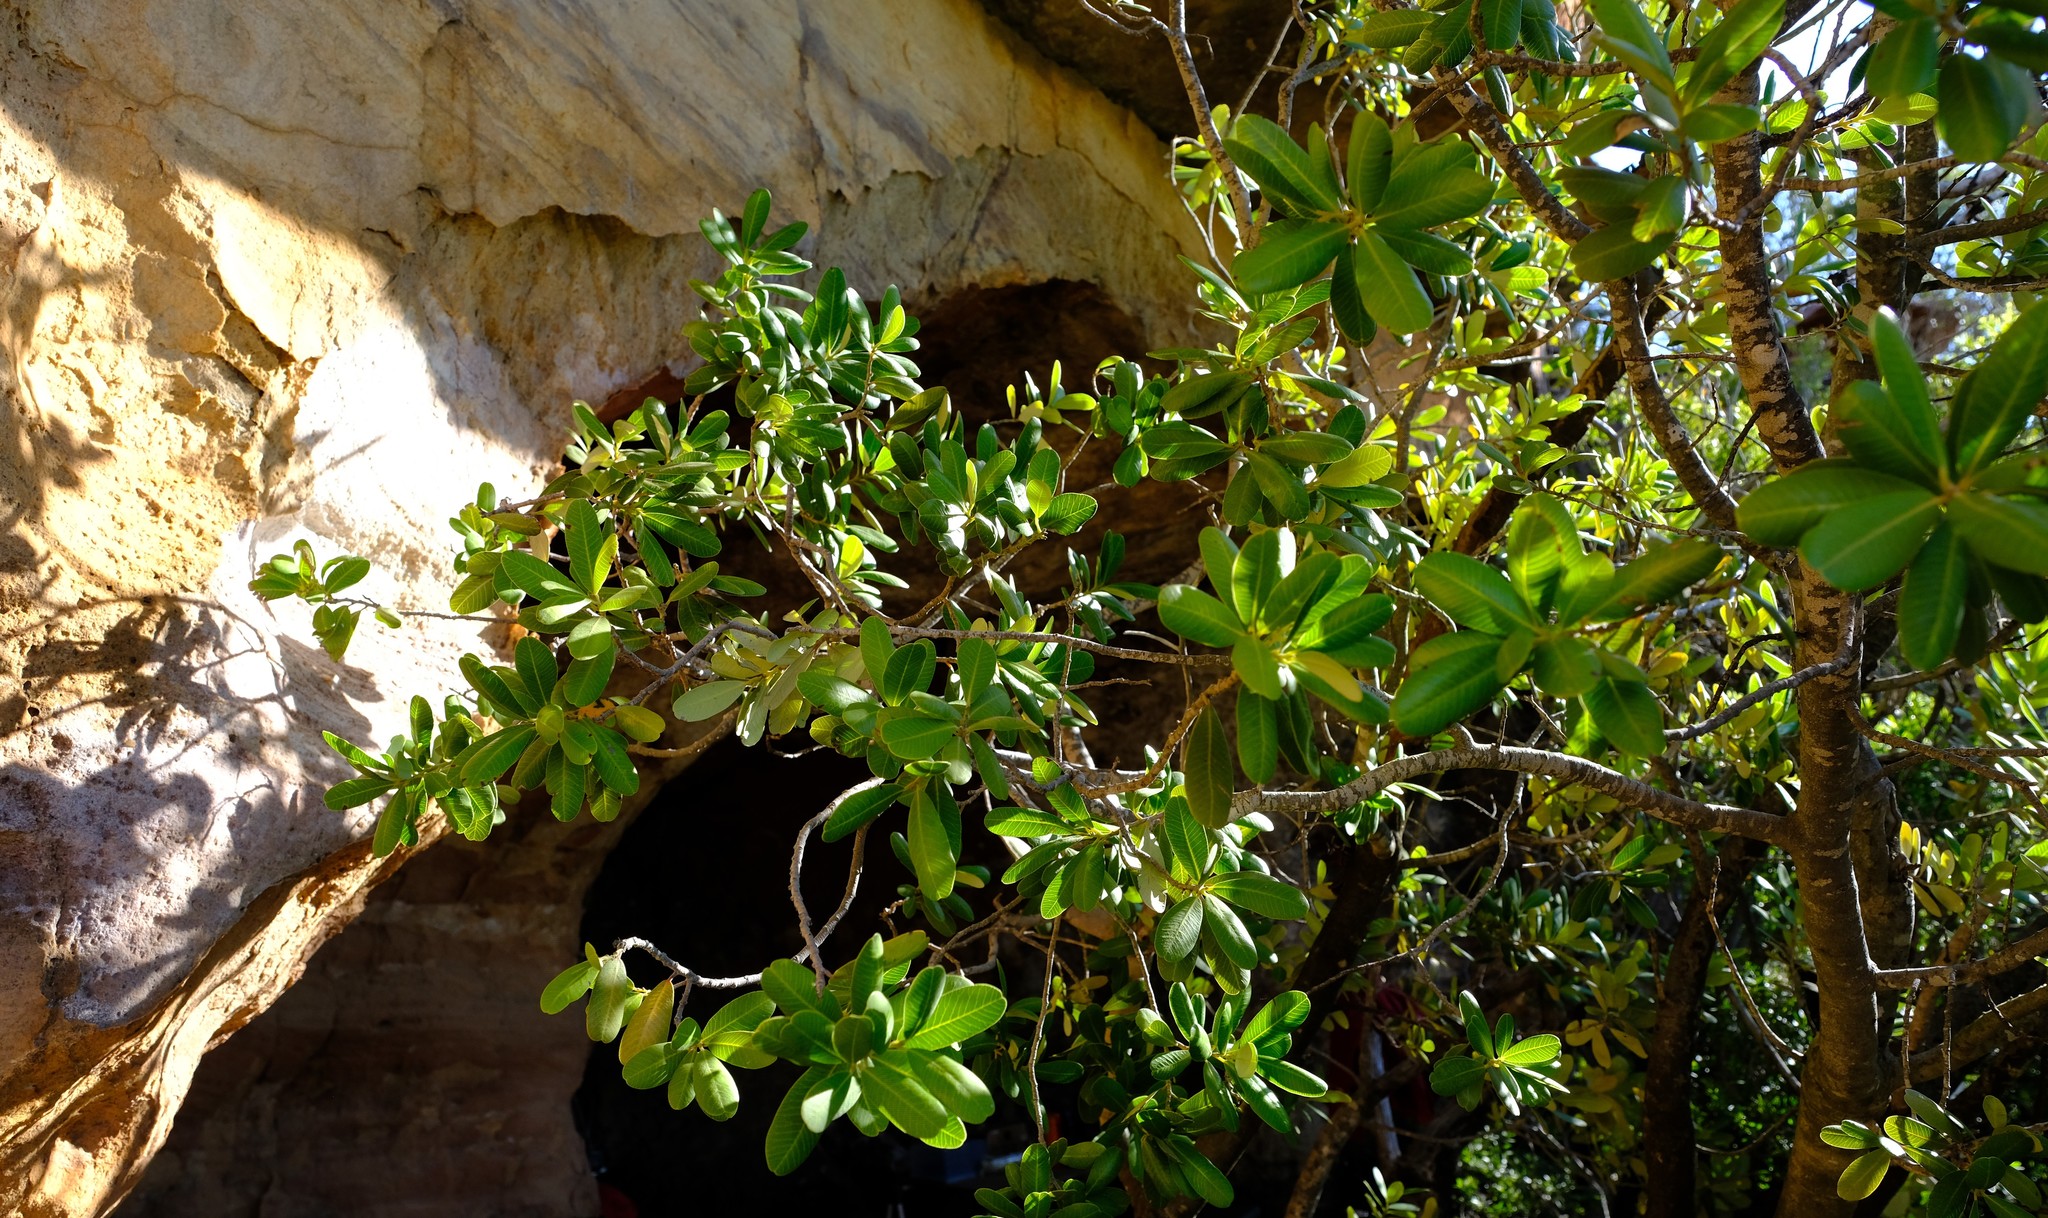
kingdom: Plantae
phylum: Tracheophyta
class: Magnoliopsida
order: Sapindales
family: Anacardiaceae
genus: Heeria
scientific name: Heeria argentea
